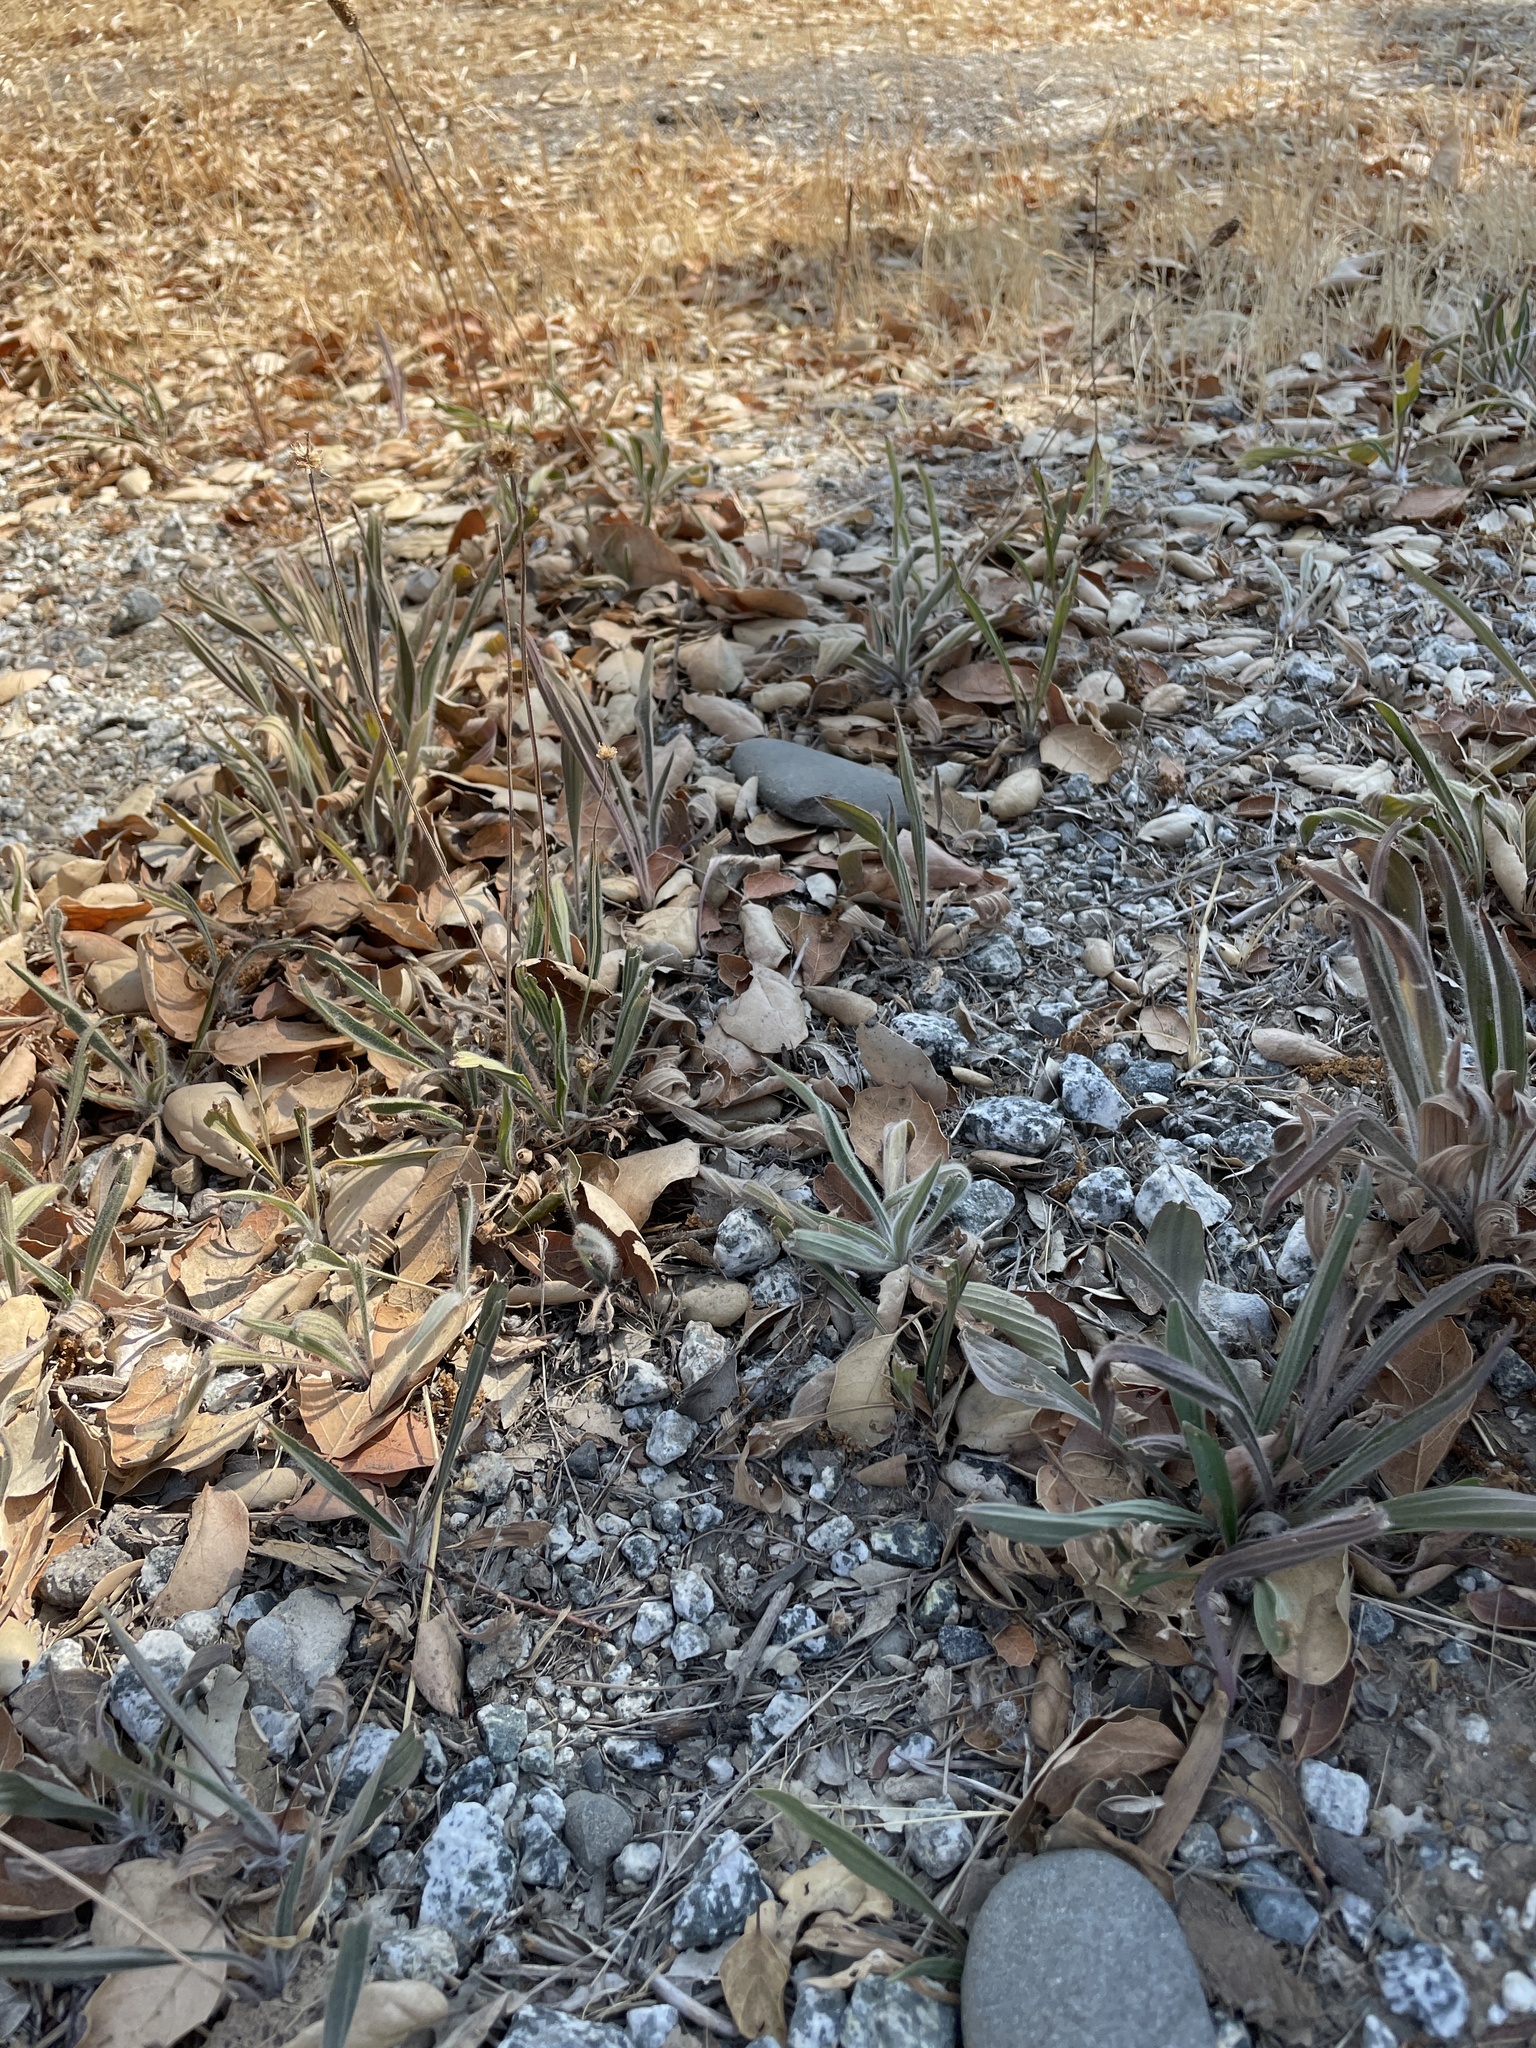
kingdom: Plantae
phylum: Tracheophyta
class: Magnoliopsida
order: Lamiales
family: Plantaginaceae
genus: Plantago
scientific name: Plantago lanceolata
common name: Ribwort plantain
